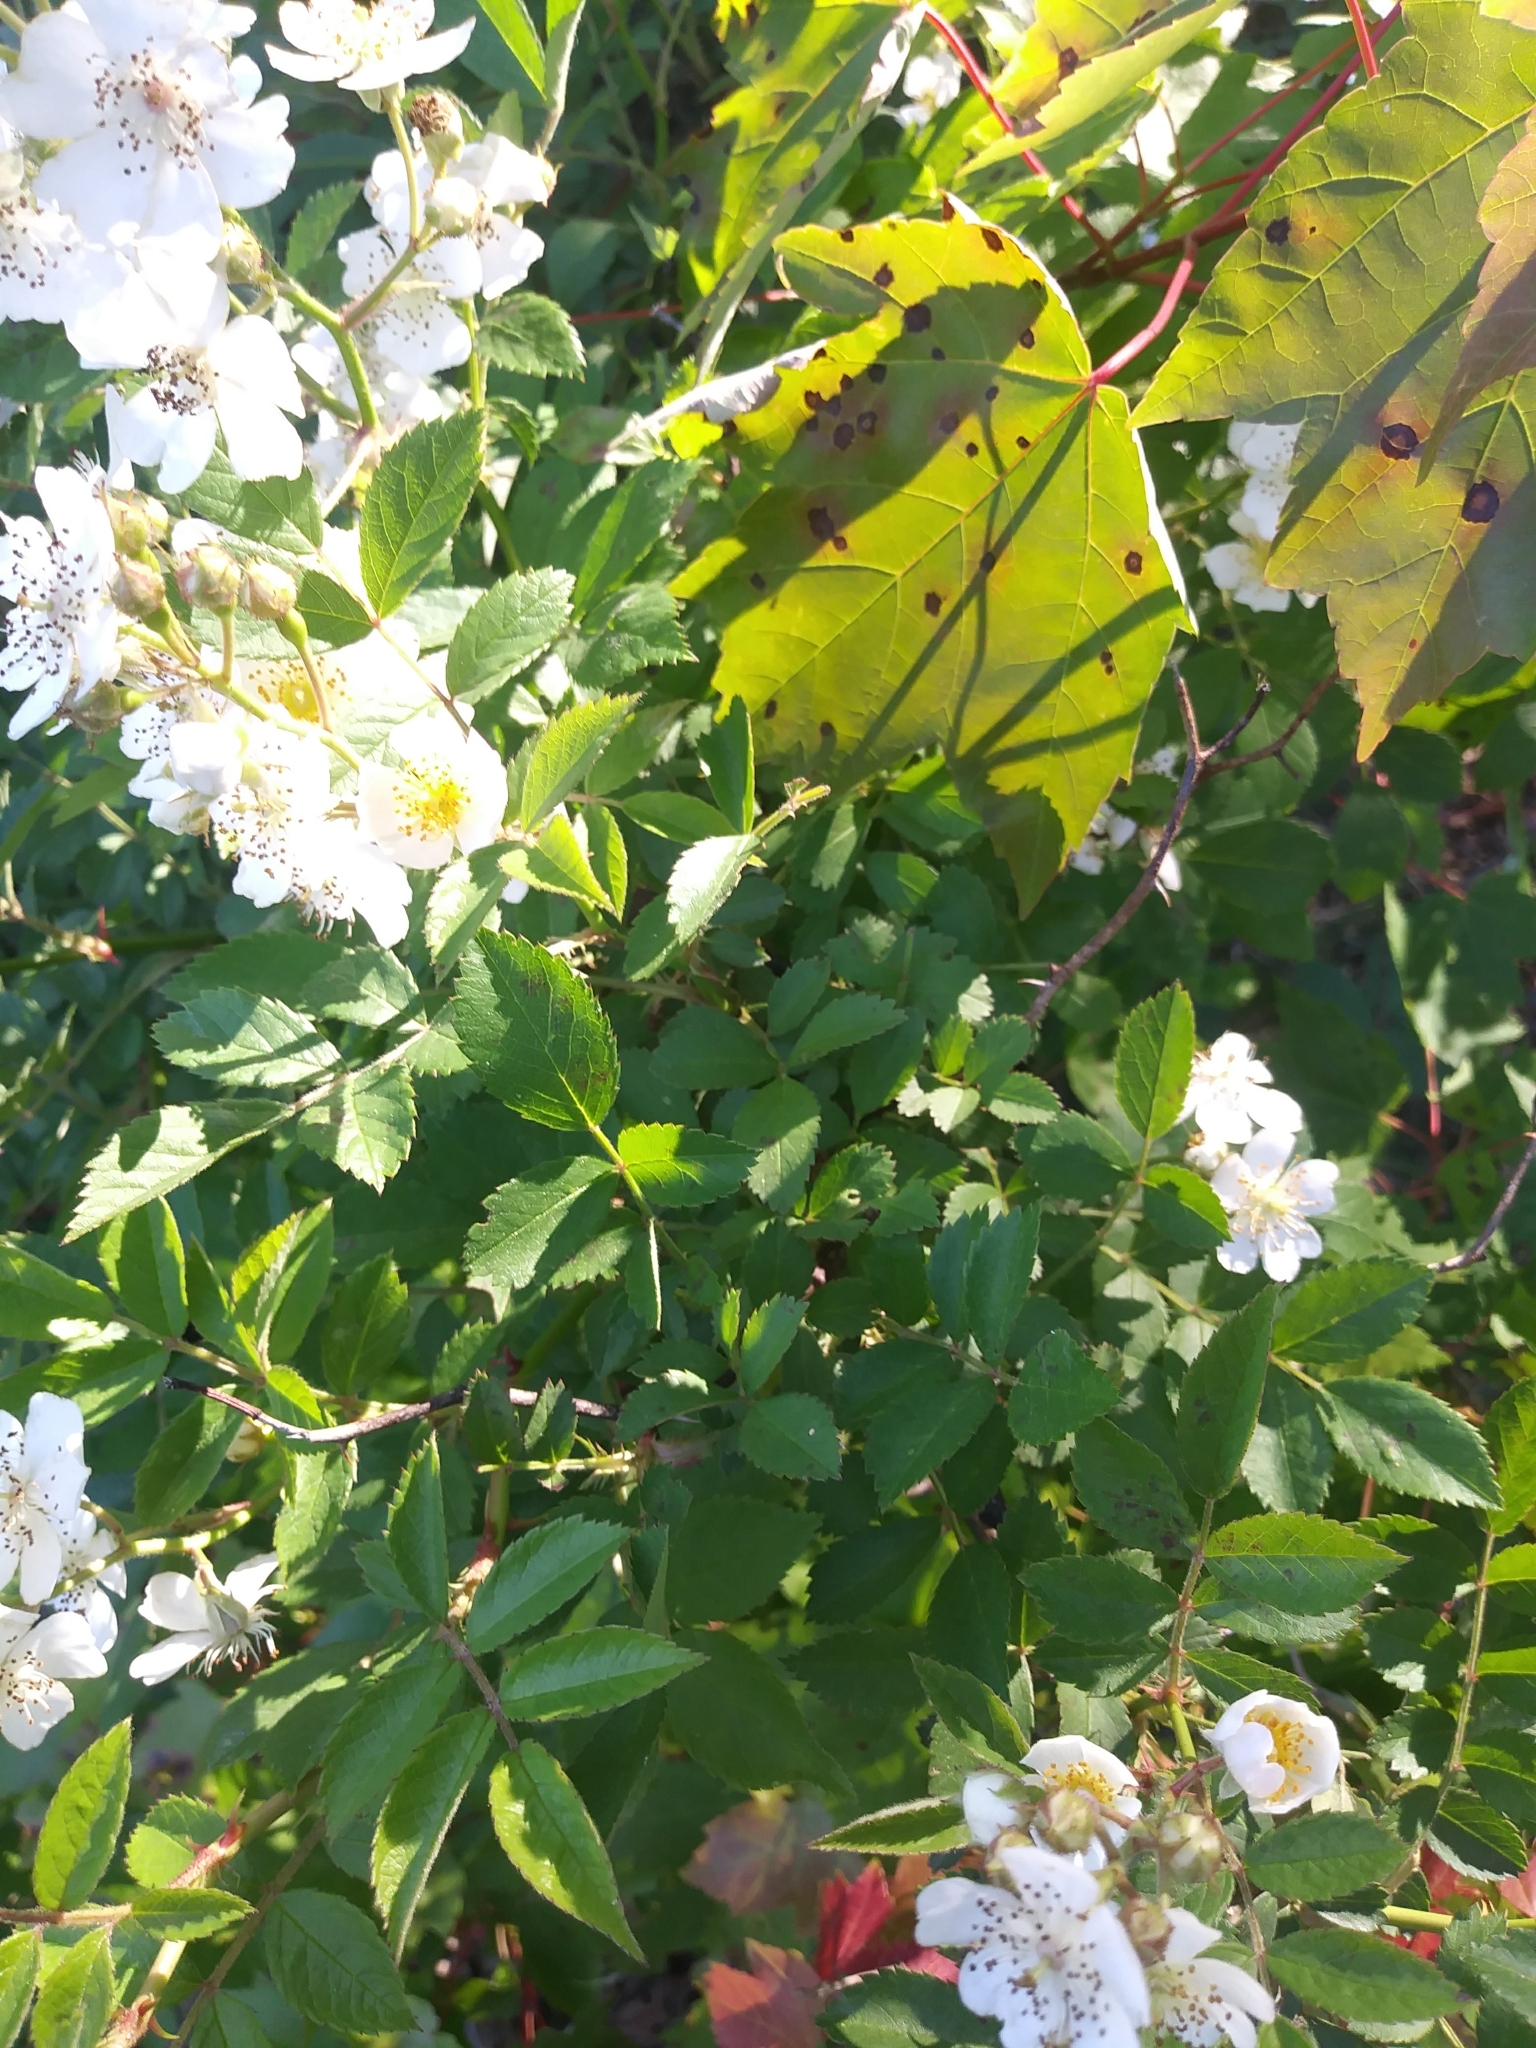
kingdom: Plantae
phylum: Tracheophyta
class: Magnoliopsida
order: Rosales
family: Rosaceae
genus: Rosa
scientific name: Rosa multiflora
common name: Multiflora rose
